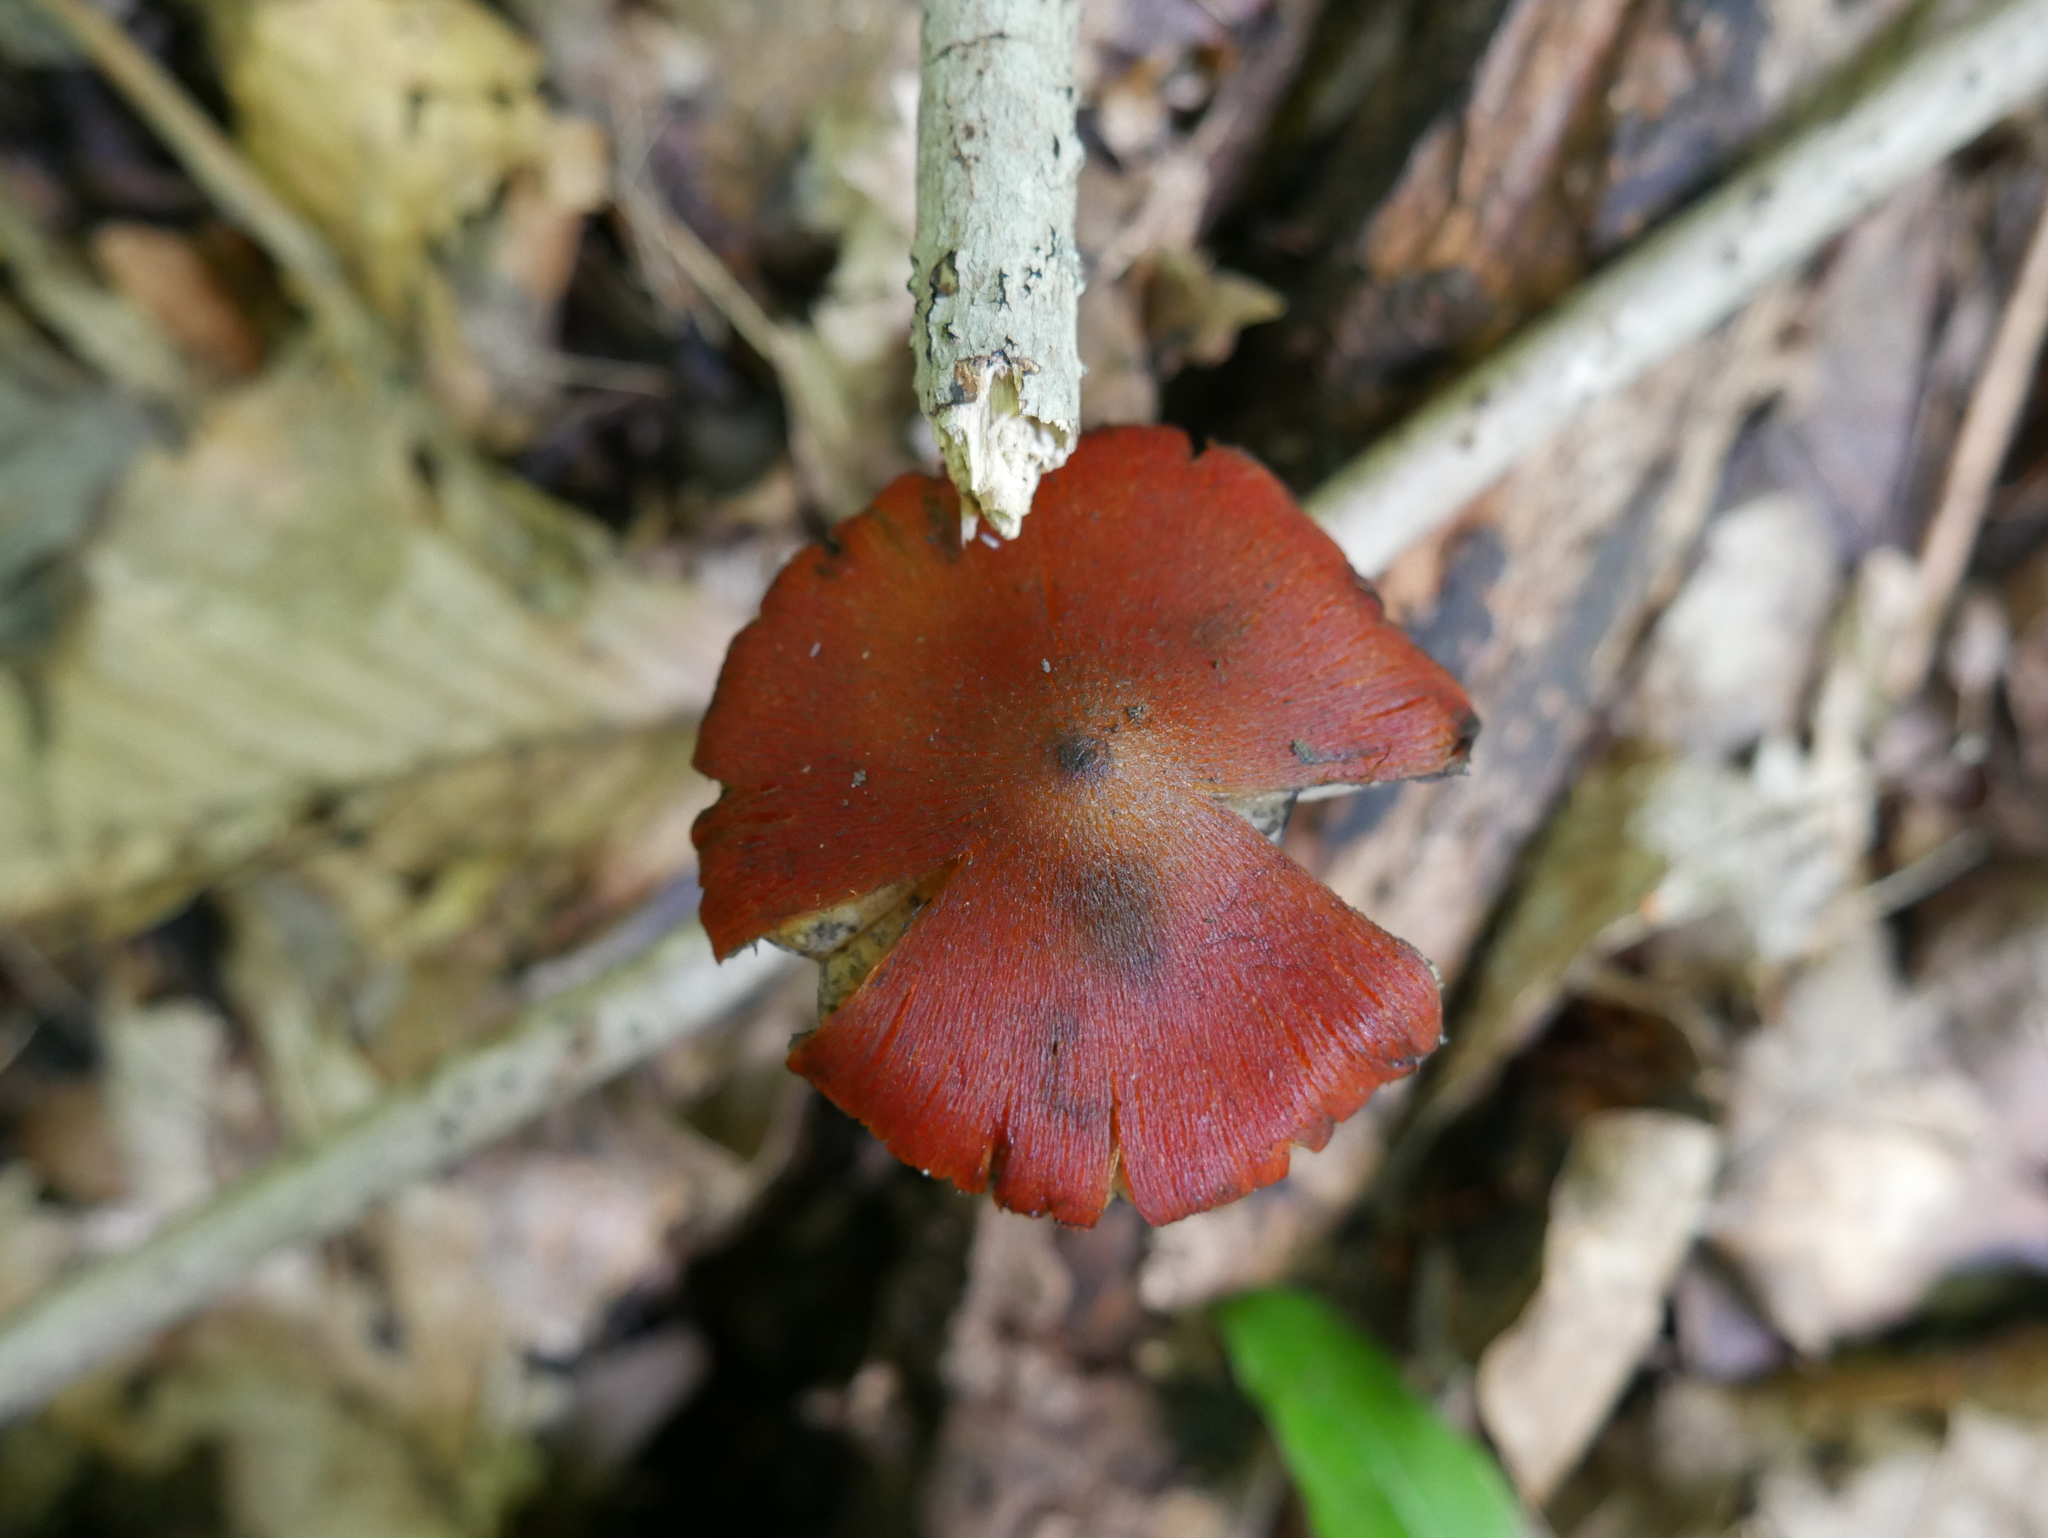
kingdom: Fungi
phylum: Basidiomycota
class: Agaricomycetes
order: Agaricales
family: Hygrophoraceae
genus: Hygrocybe
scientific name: Hygrocybe conica
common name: Blackening wax-cap
